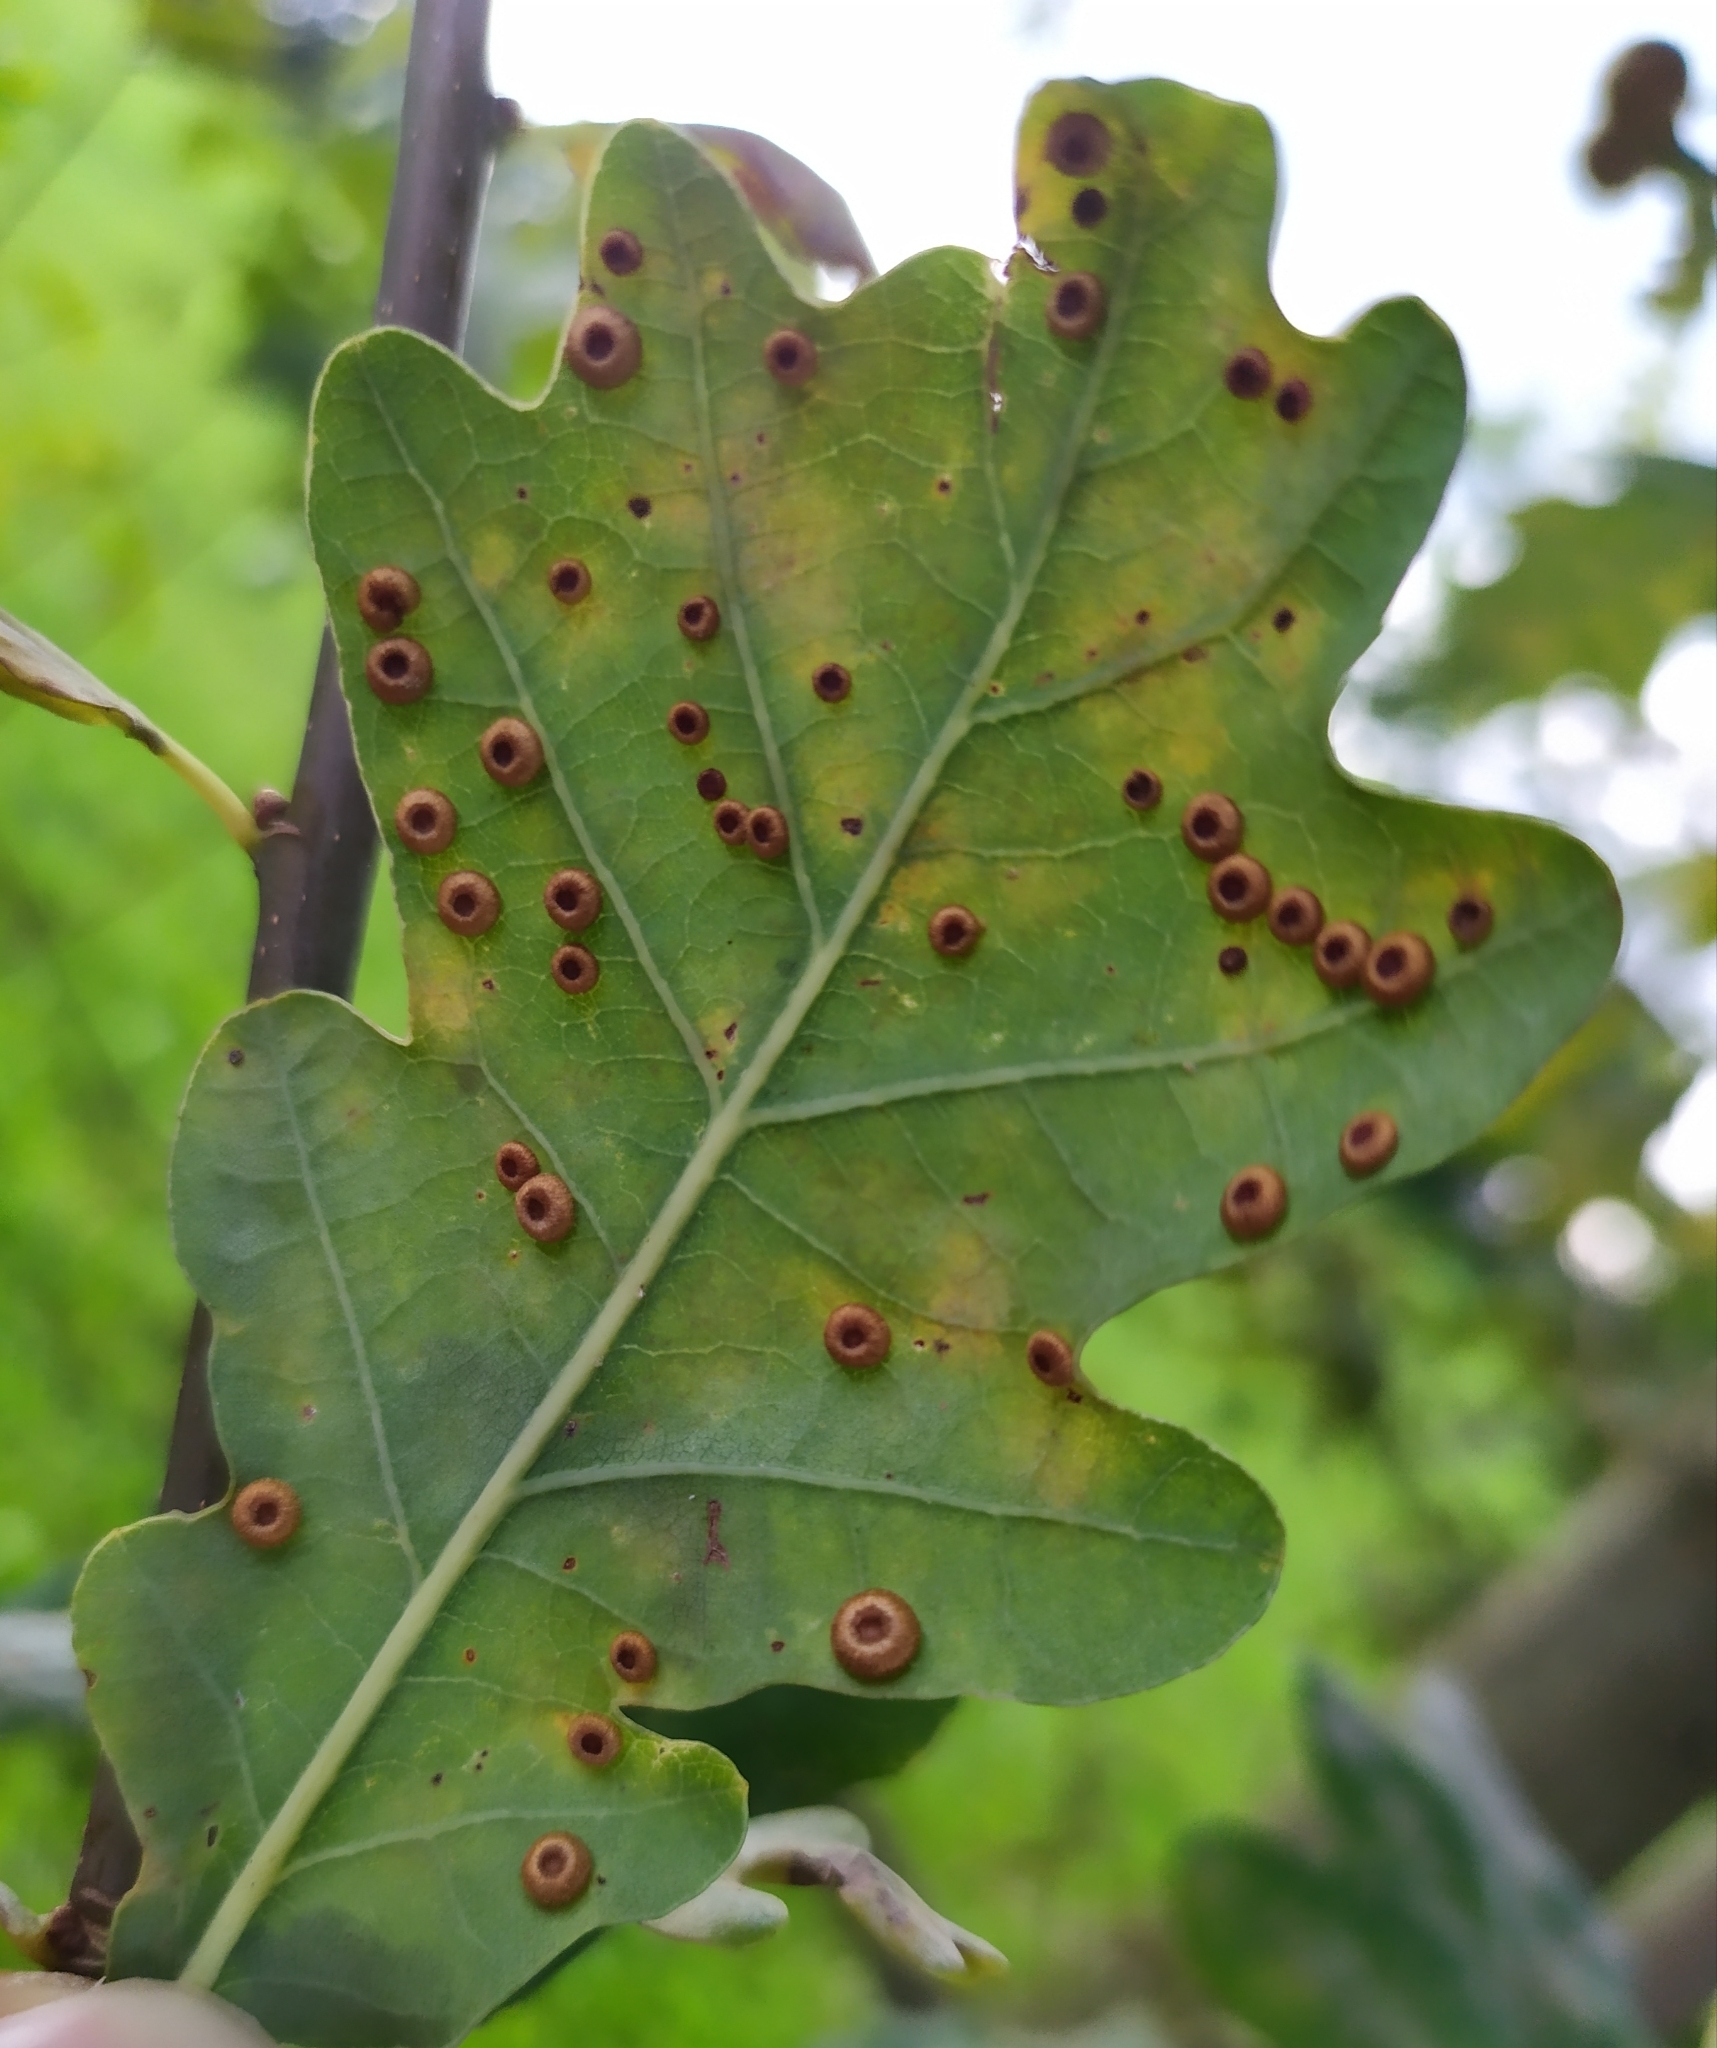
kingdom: Animalia
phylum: Arthropoda
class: Insecta
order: Hymenoptera
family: Cynipidae
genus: Neuroterus
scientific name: Neuroterus numismalis
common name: Silk-button spangle gall
